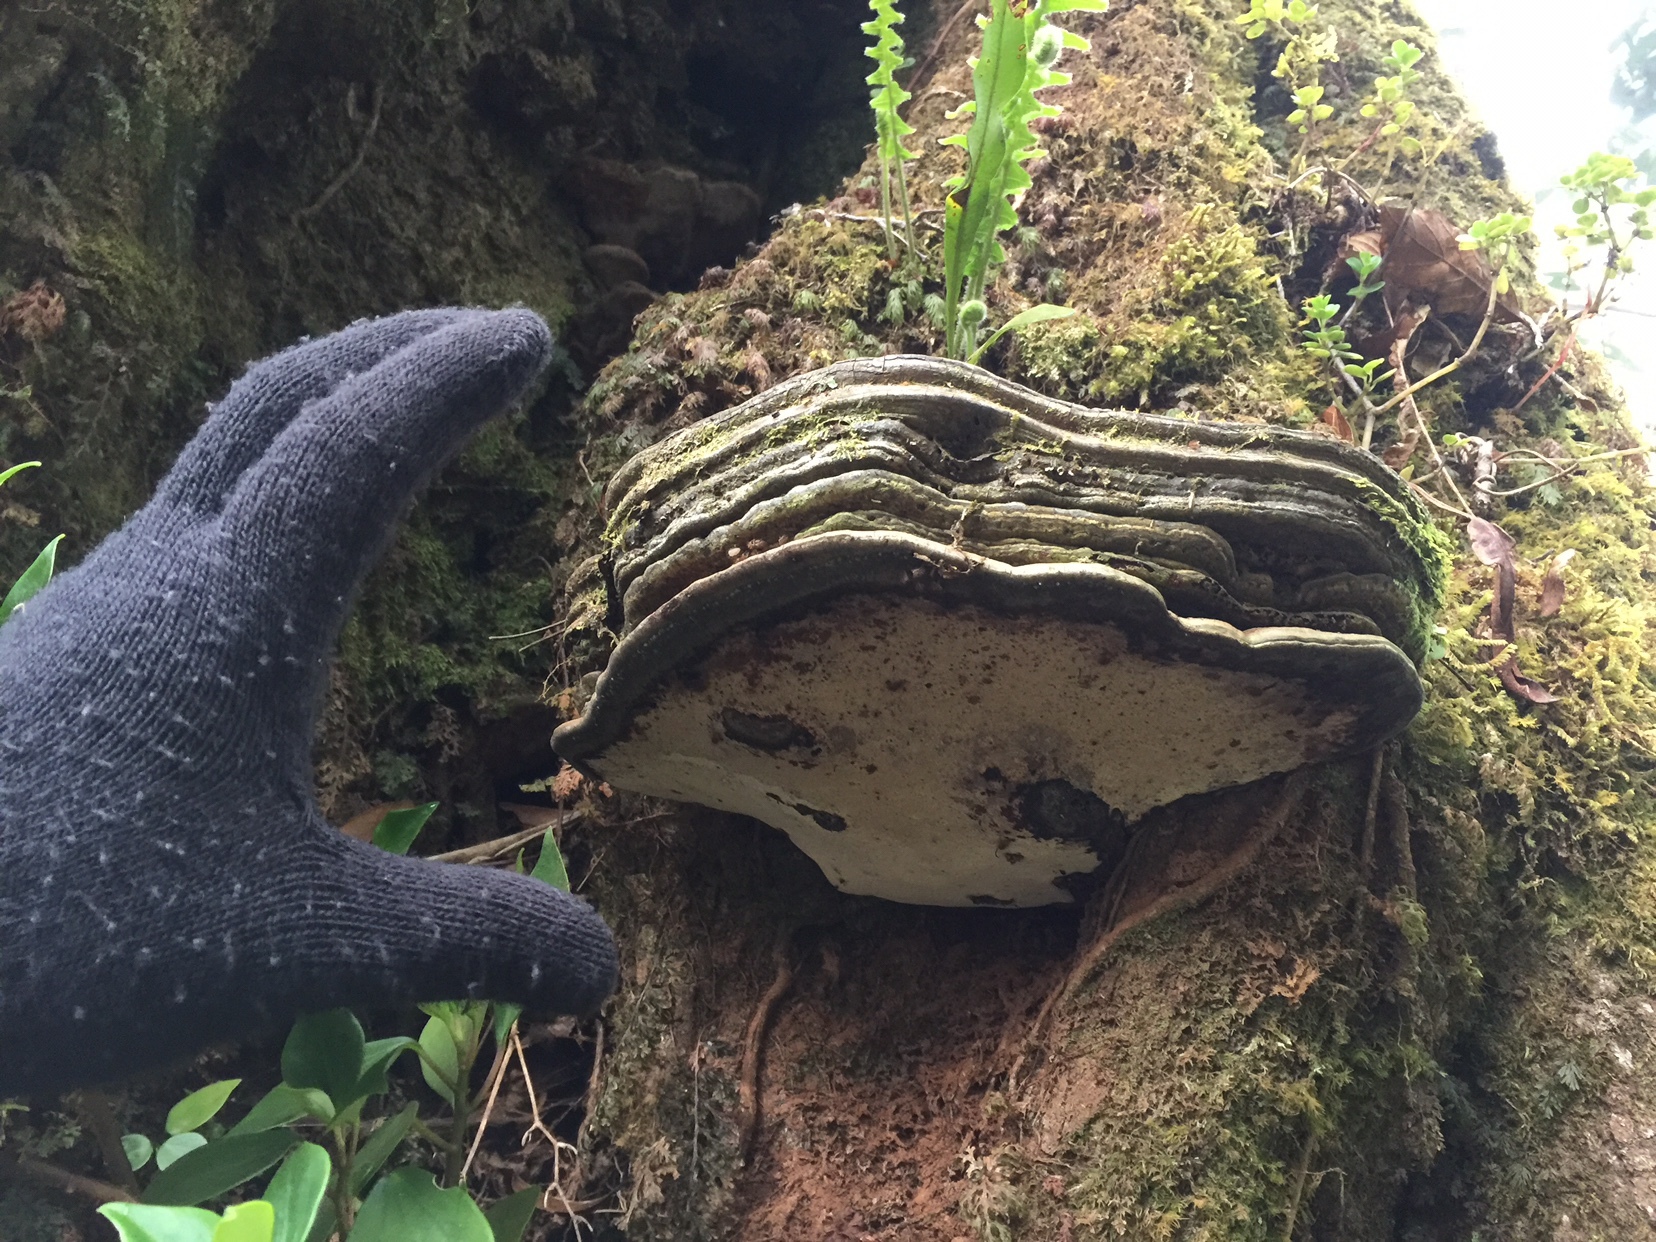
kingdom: Fungi
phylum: Basidiomycota
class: Agaricomycetes
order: Polyporales
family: Polyporaceae
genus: Ganoderma
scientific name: Ganoderma applanatum
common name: Artist's bracket
